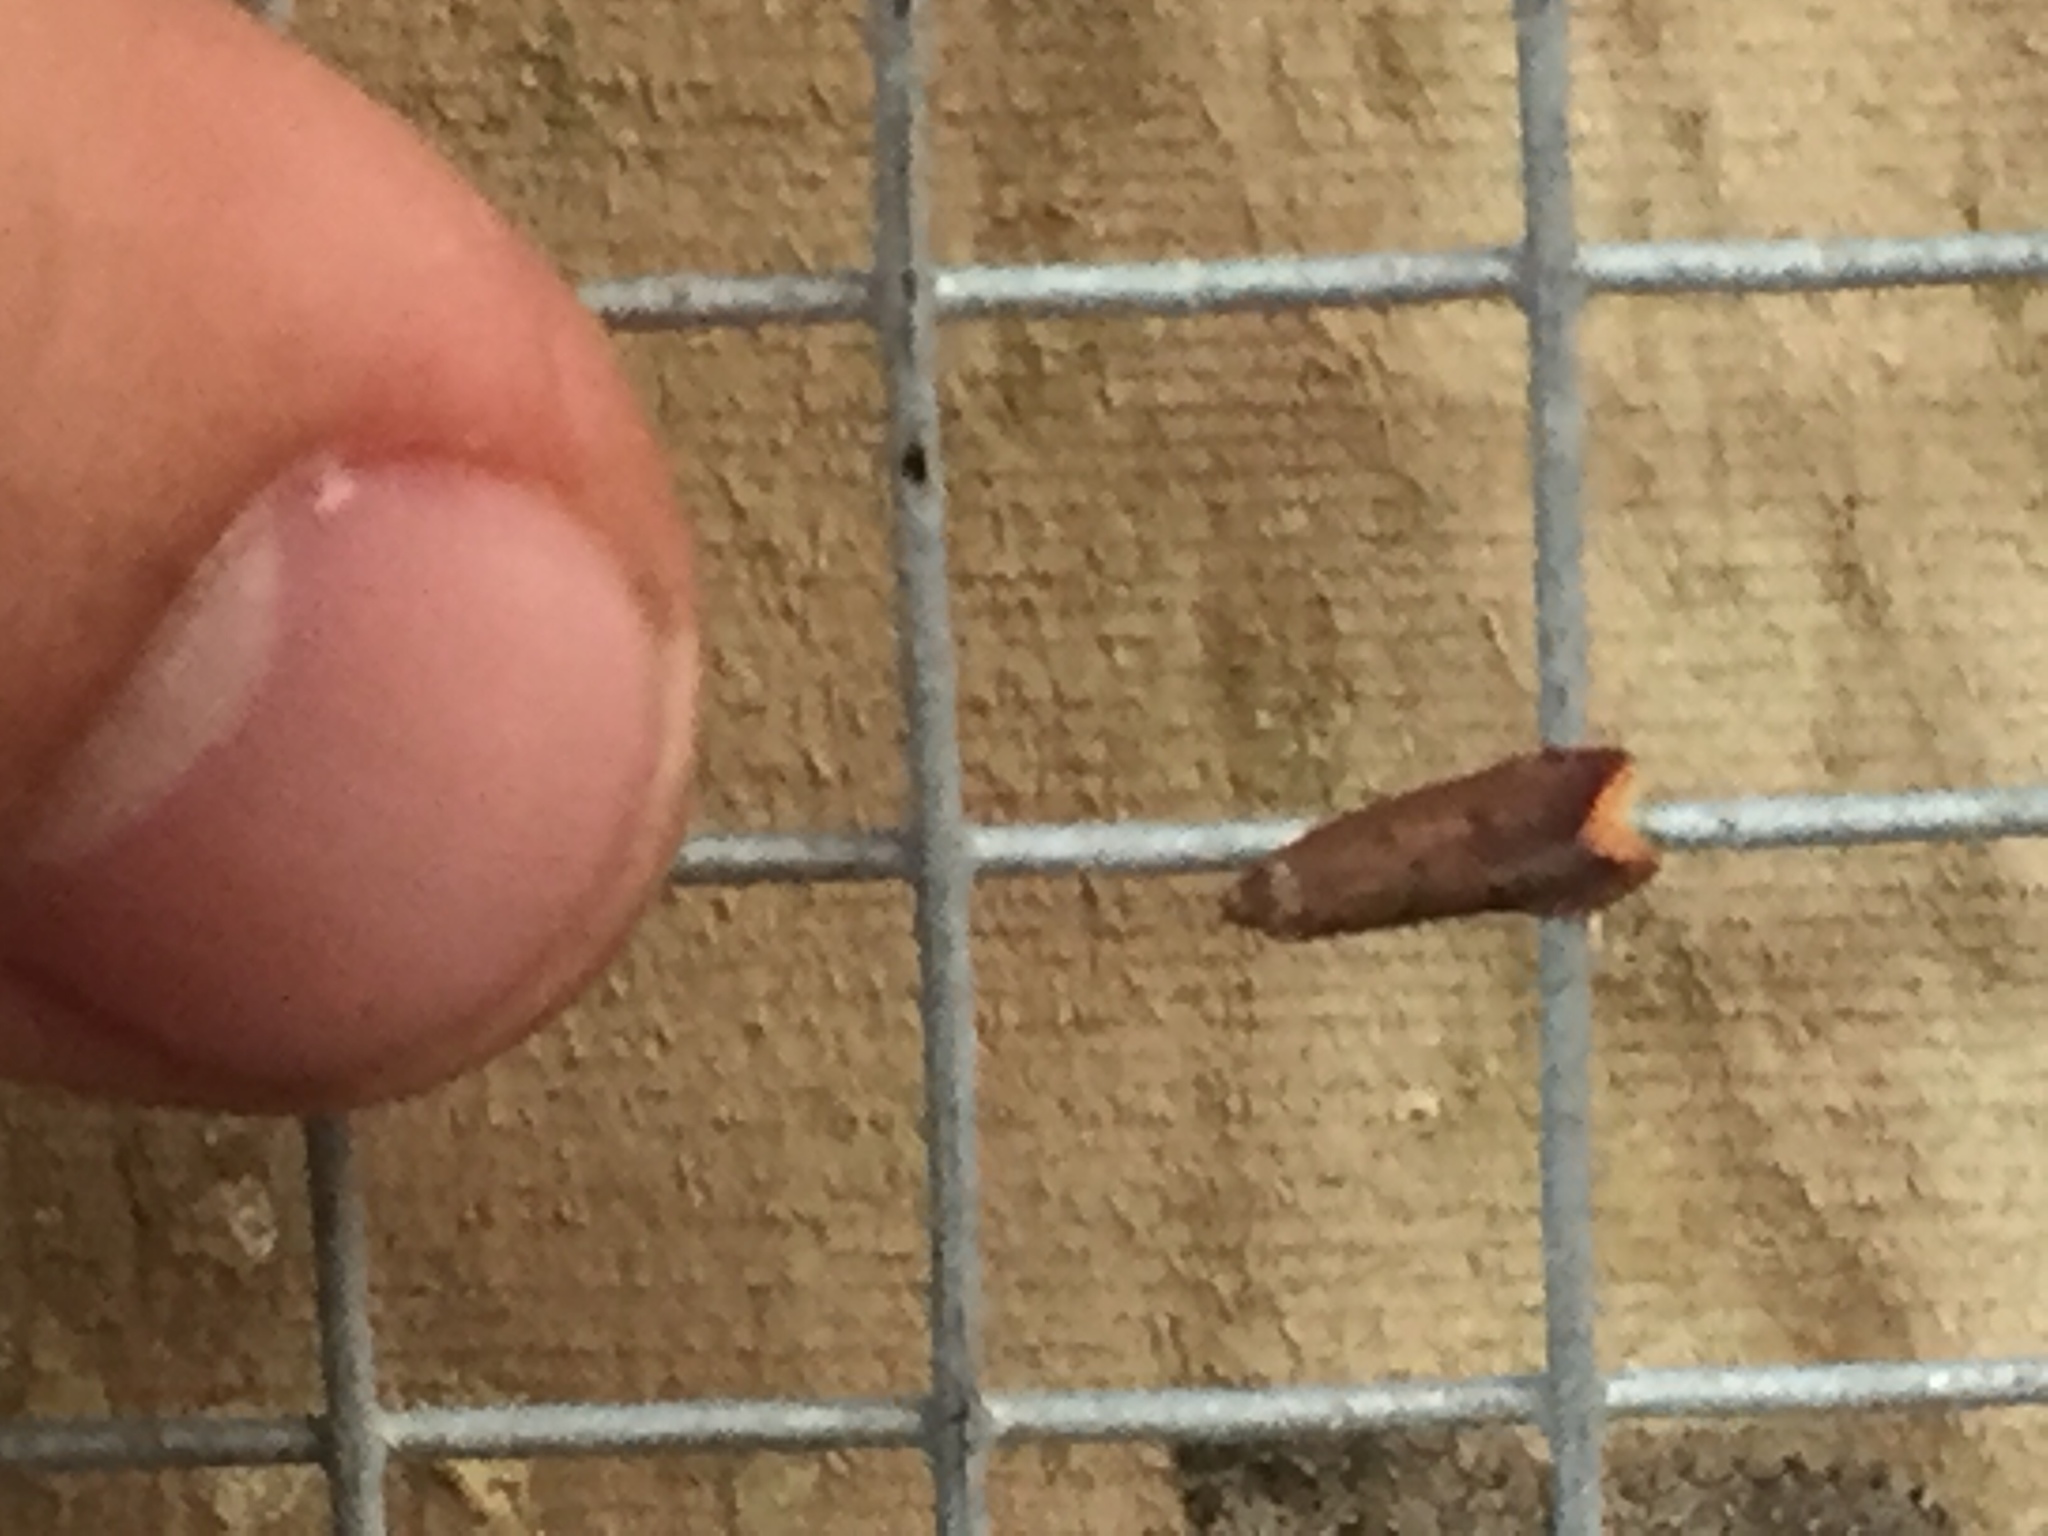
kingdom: Animalia
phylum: Arthropoda
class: Insecta
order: Lepidoptera
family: Oecophoridae
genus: Tachystola
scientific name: Tachystola acroxantha
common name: Ruddy streak
